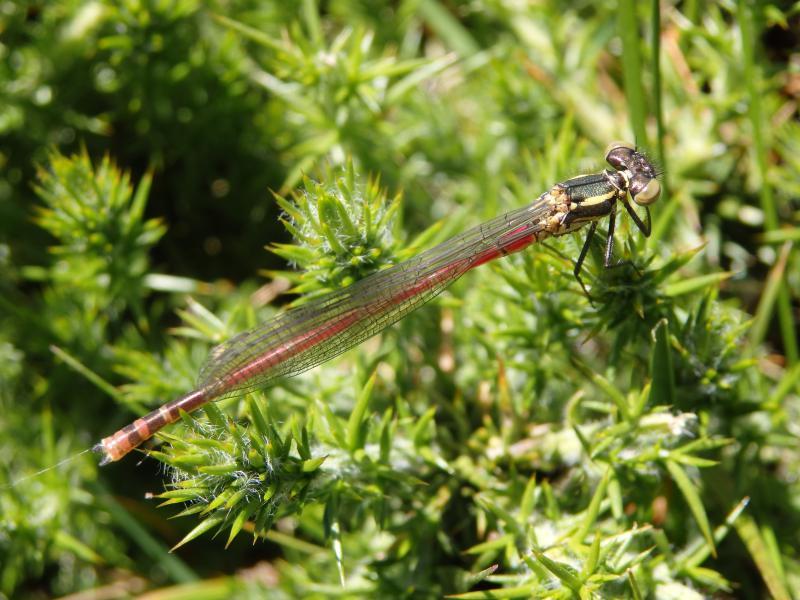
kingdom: Animalia
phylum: Arthropoda
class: Insecta
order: Odonata
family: Coenagrionidae
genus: Pyrrhosoma
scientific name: Pyrrhosoma nymphula
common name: Large red damsel
